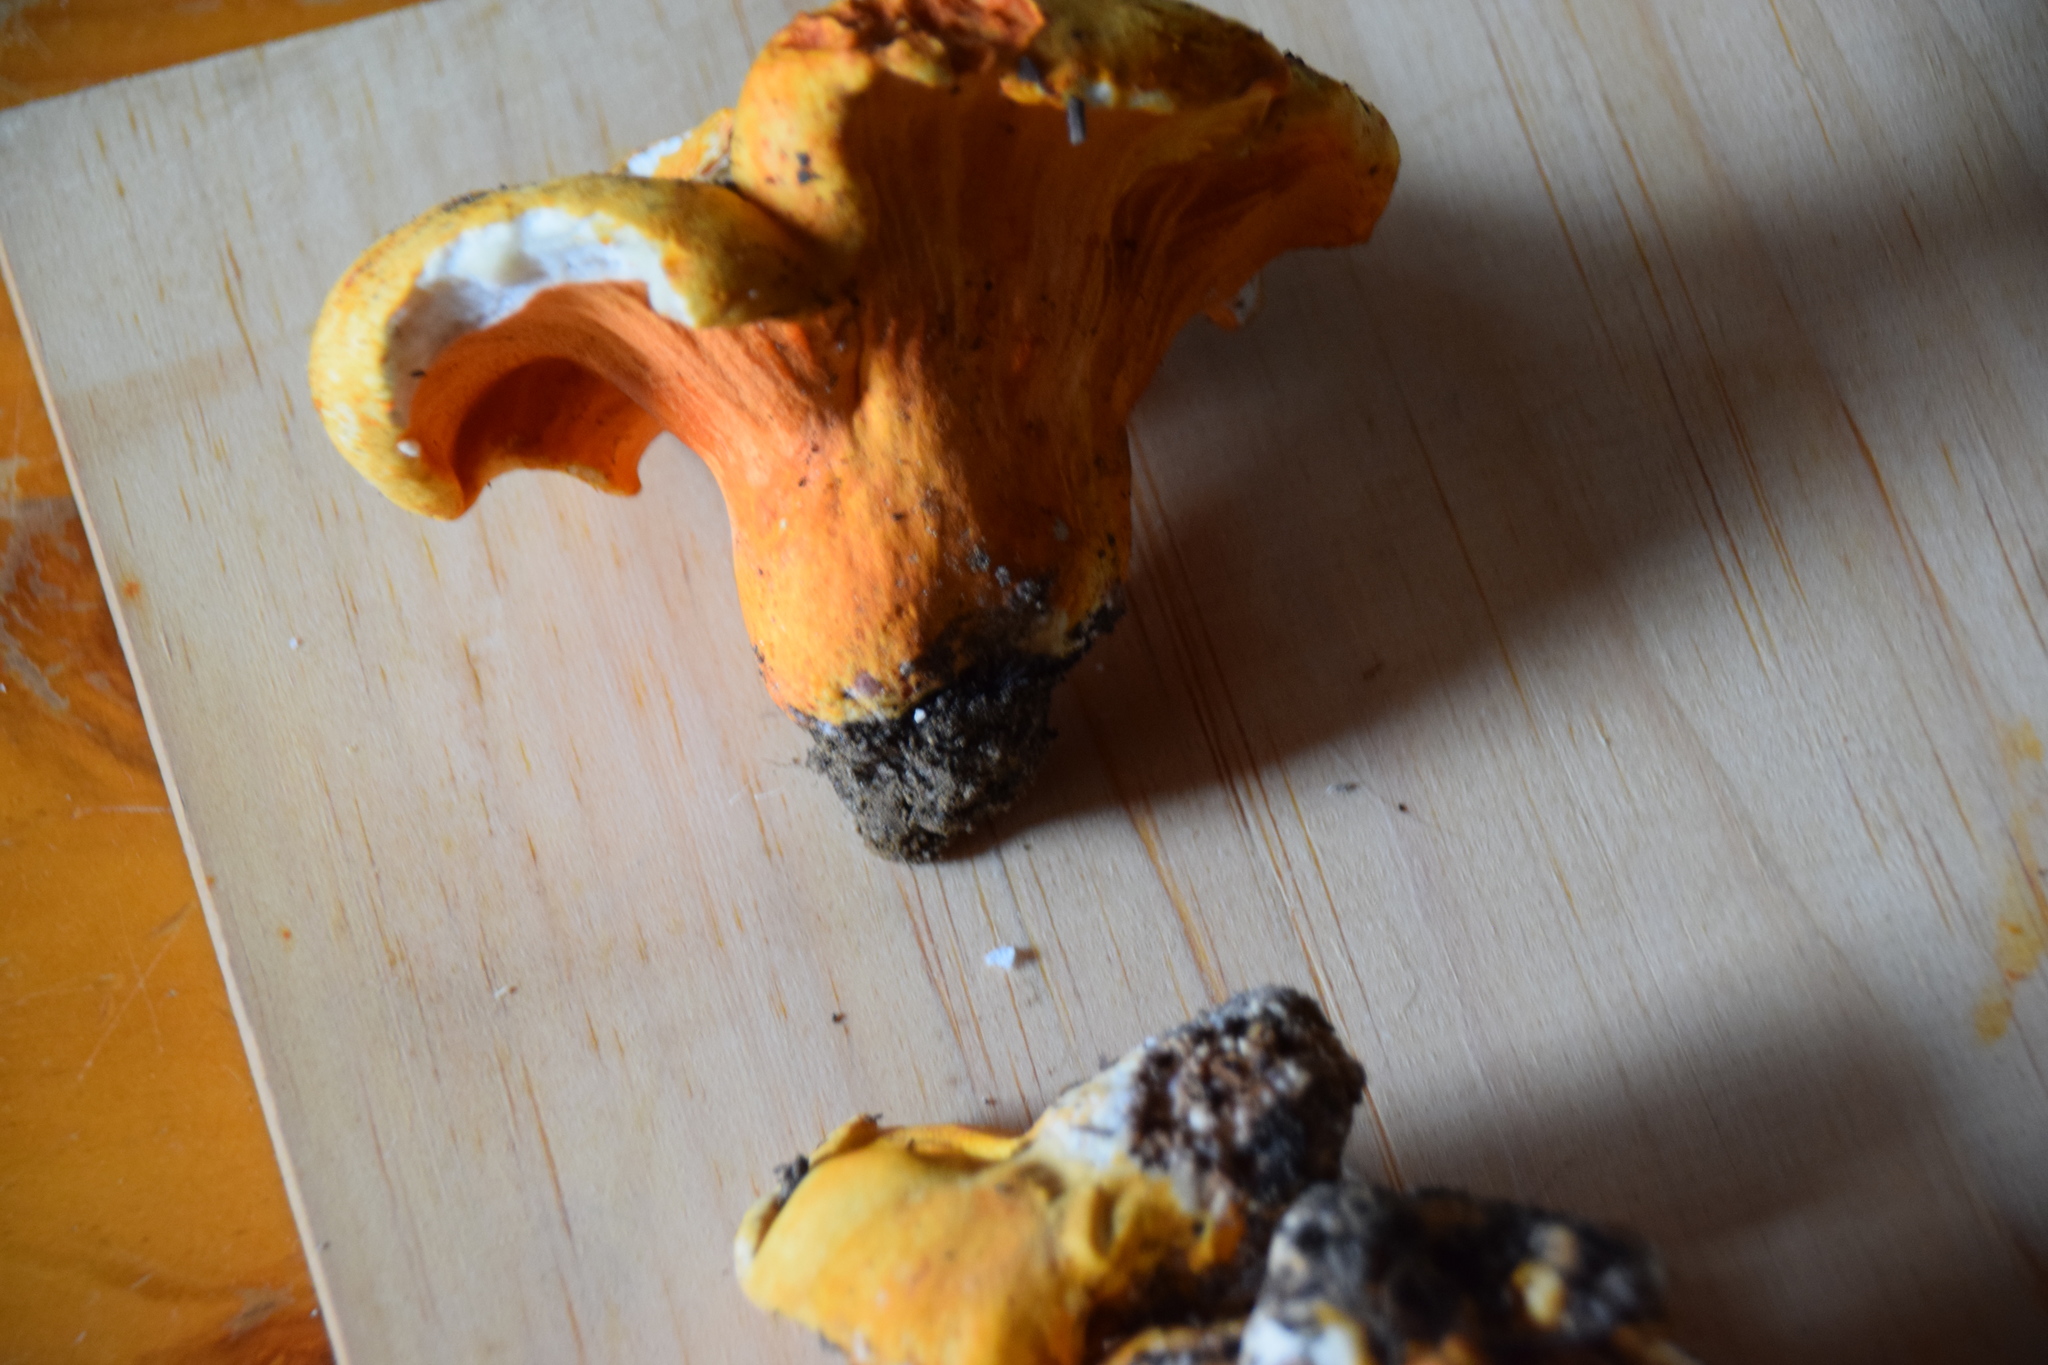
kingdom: Fungi
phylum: Ascomycota
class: Sordariomycetes
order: Hypocreales
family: Hypocreaceae
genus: Hypomyces
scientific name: Hypomyces lactifluorum
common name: Lobster mushroom
